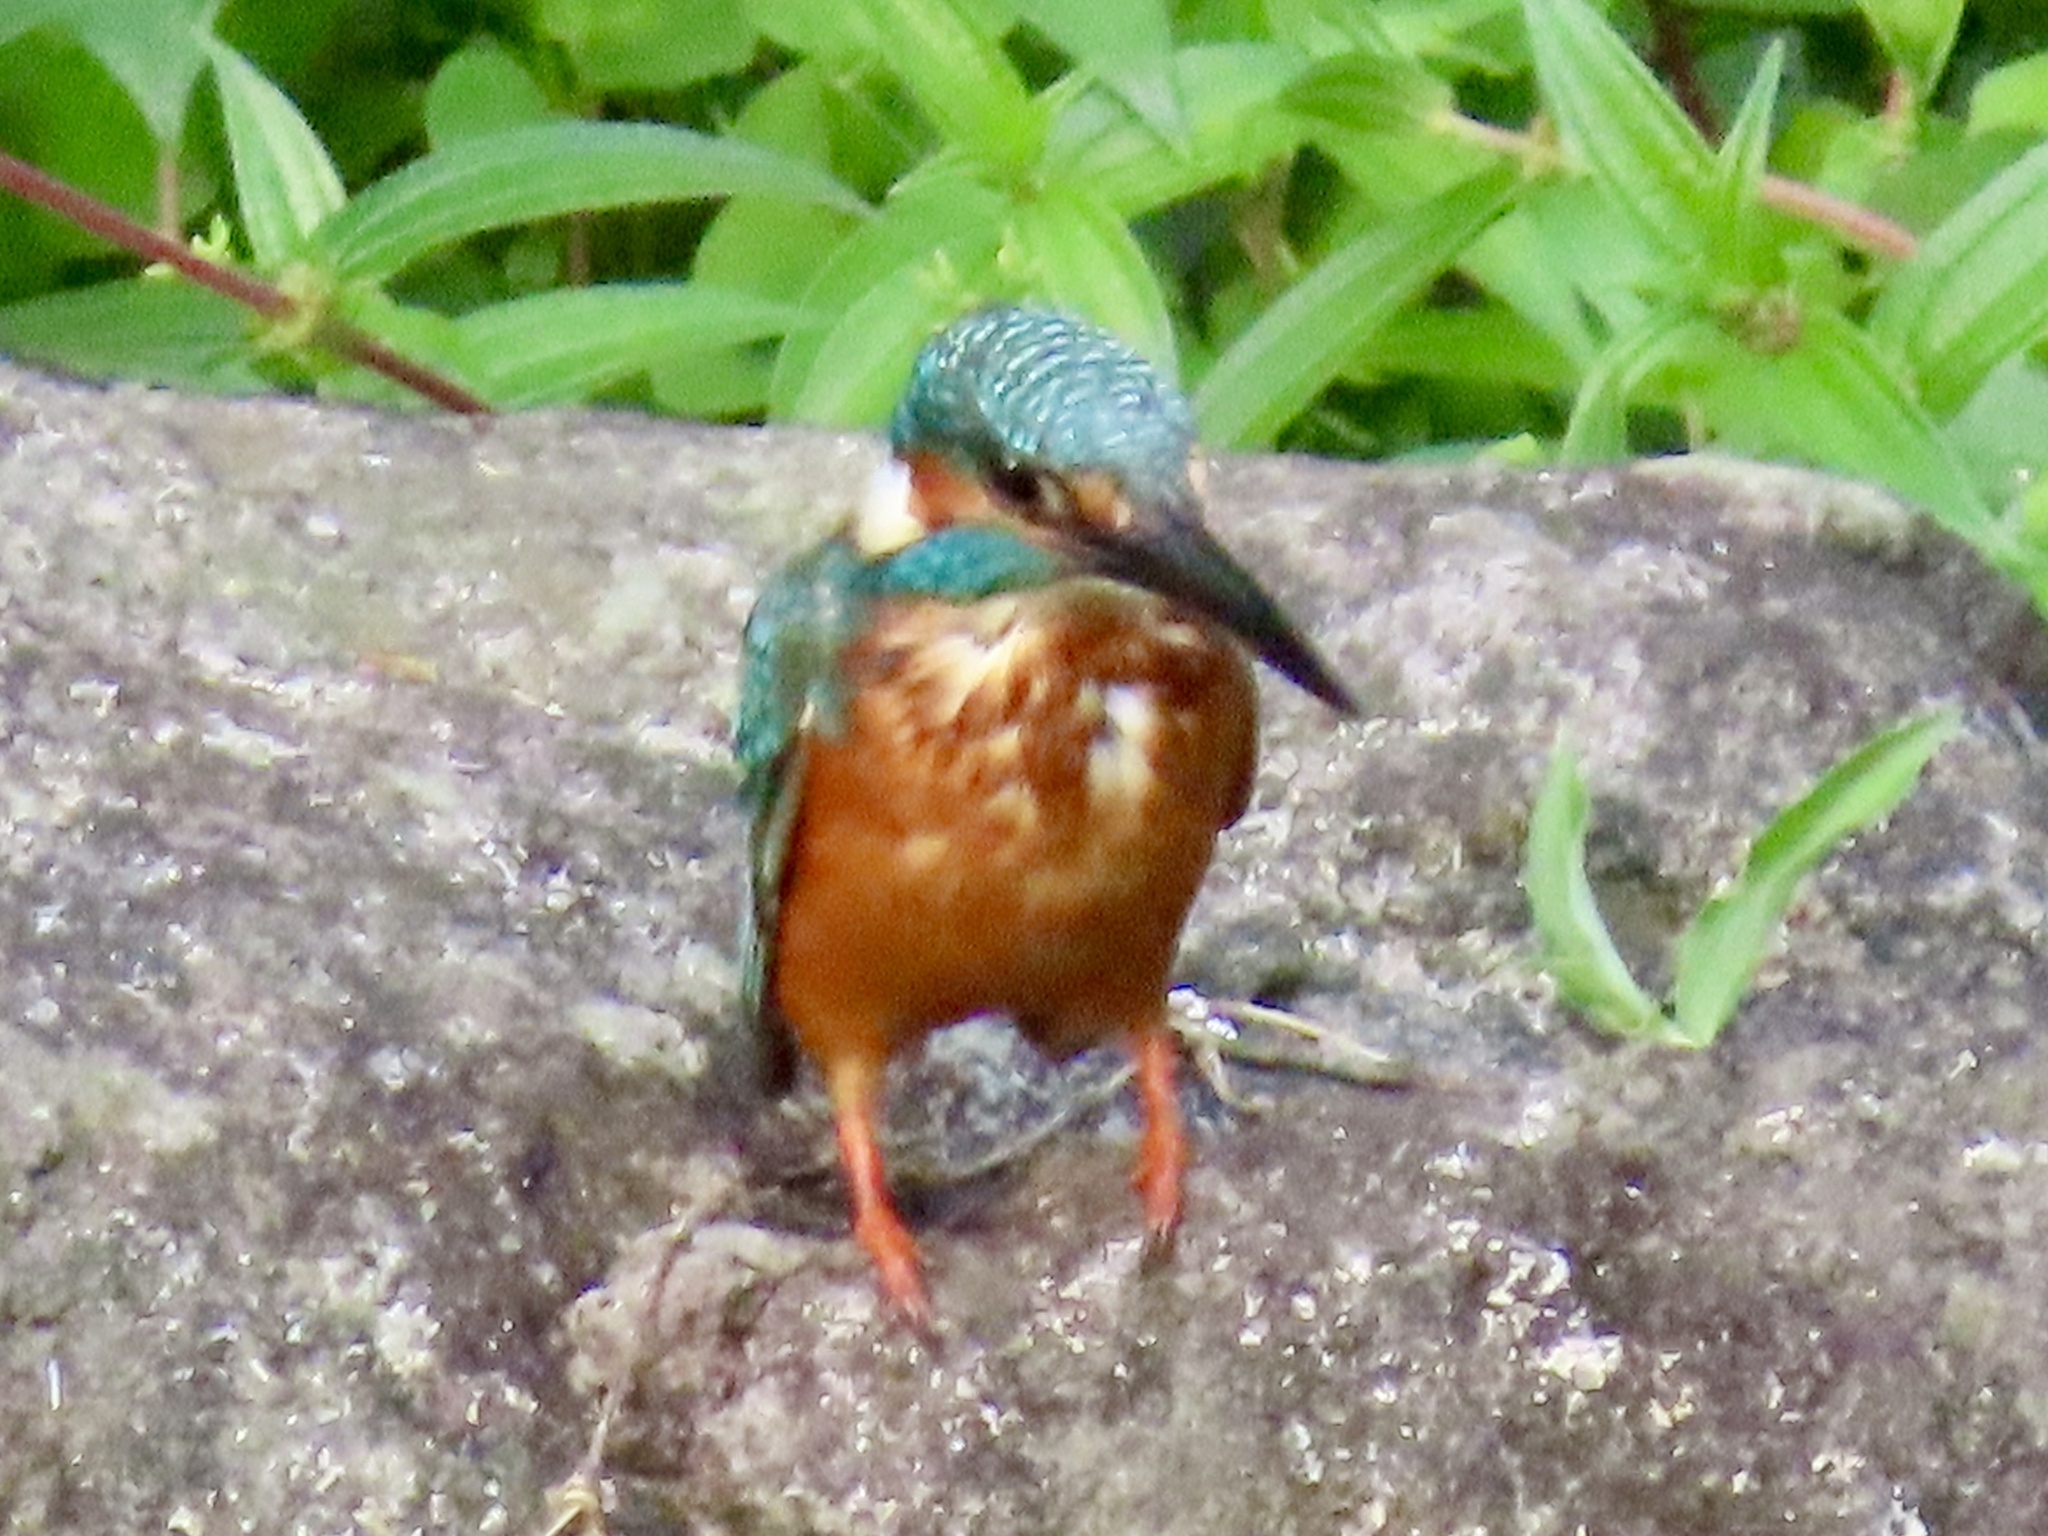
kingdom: Animalia
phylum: Chordata
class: Aves
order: Coraciiformes
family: Alcedinidae
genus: Alcedo
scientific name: Alcedo atthis
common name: Common kingfisher
